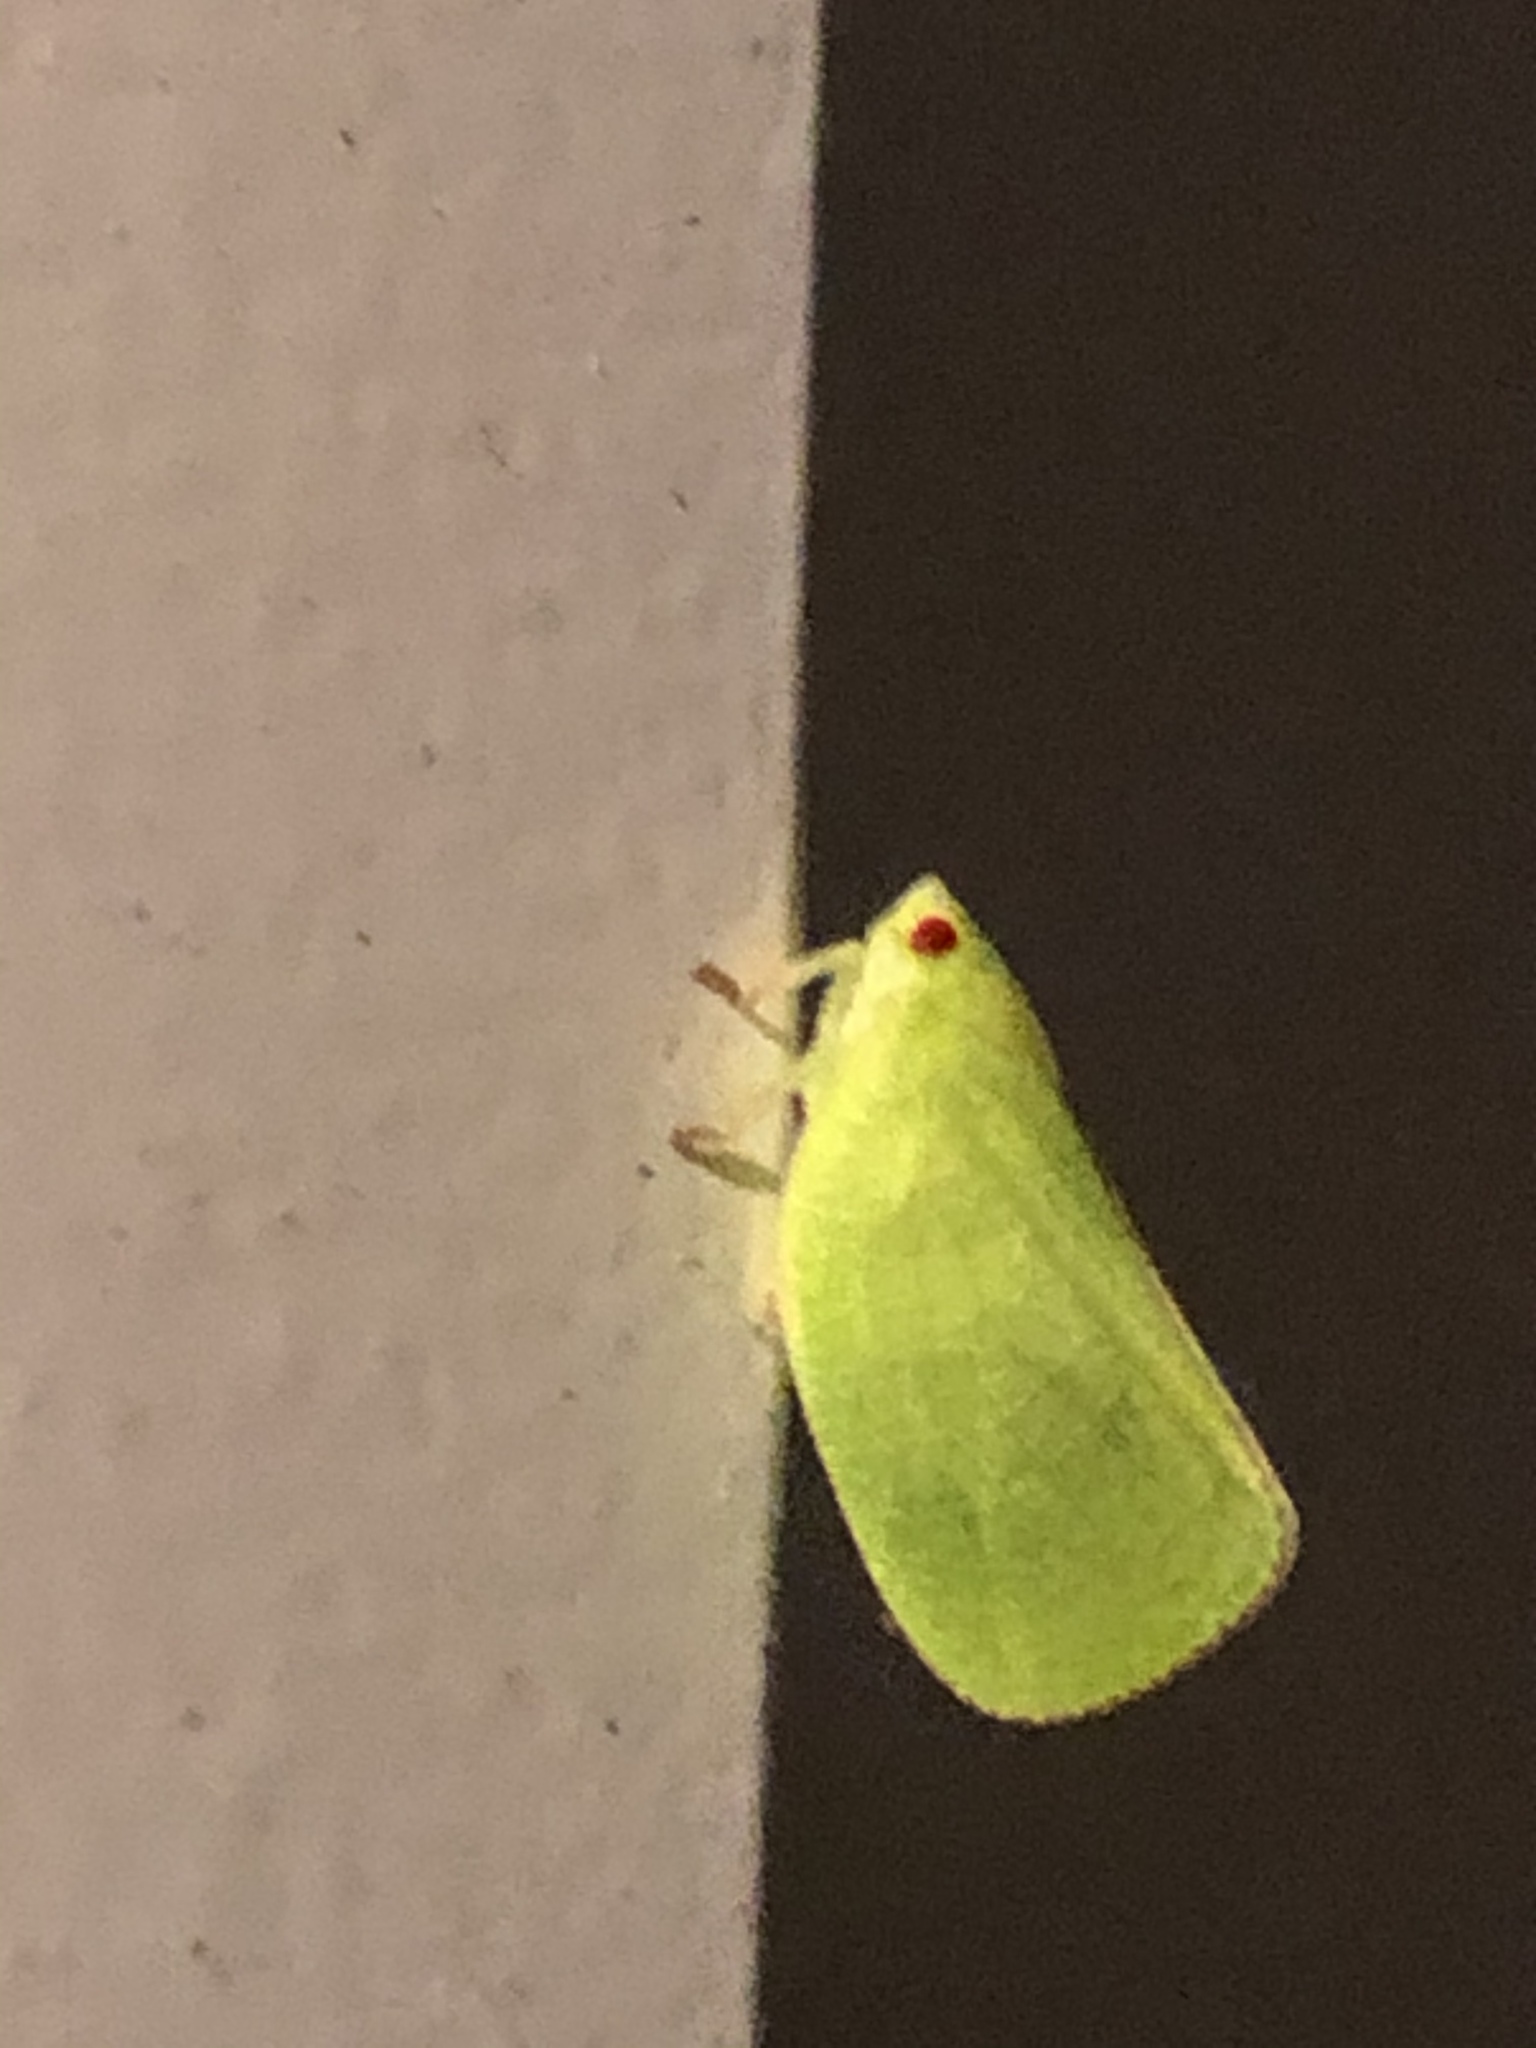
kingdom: Animalia
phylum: Arthropoda
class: Insecta
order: Hemiptera
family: Acanaloniidae
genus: Acanalonia
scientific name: Acanalonia conica
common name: Green cone-headed planthopper
